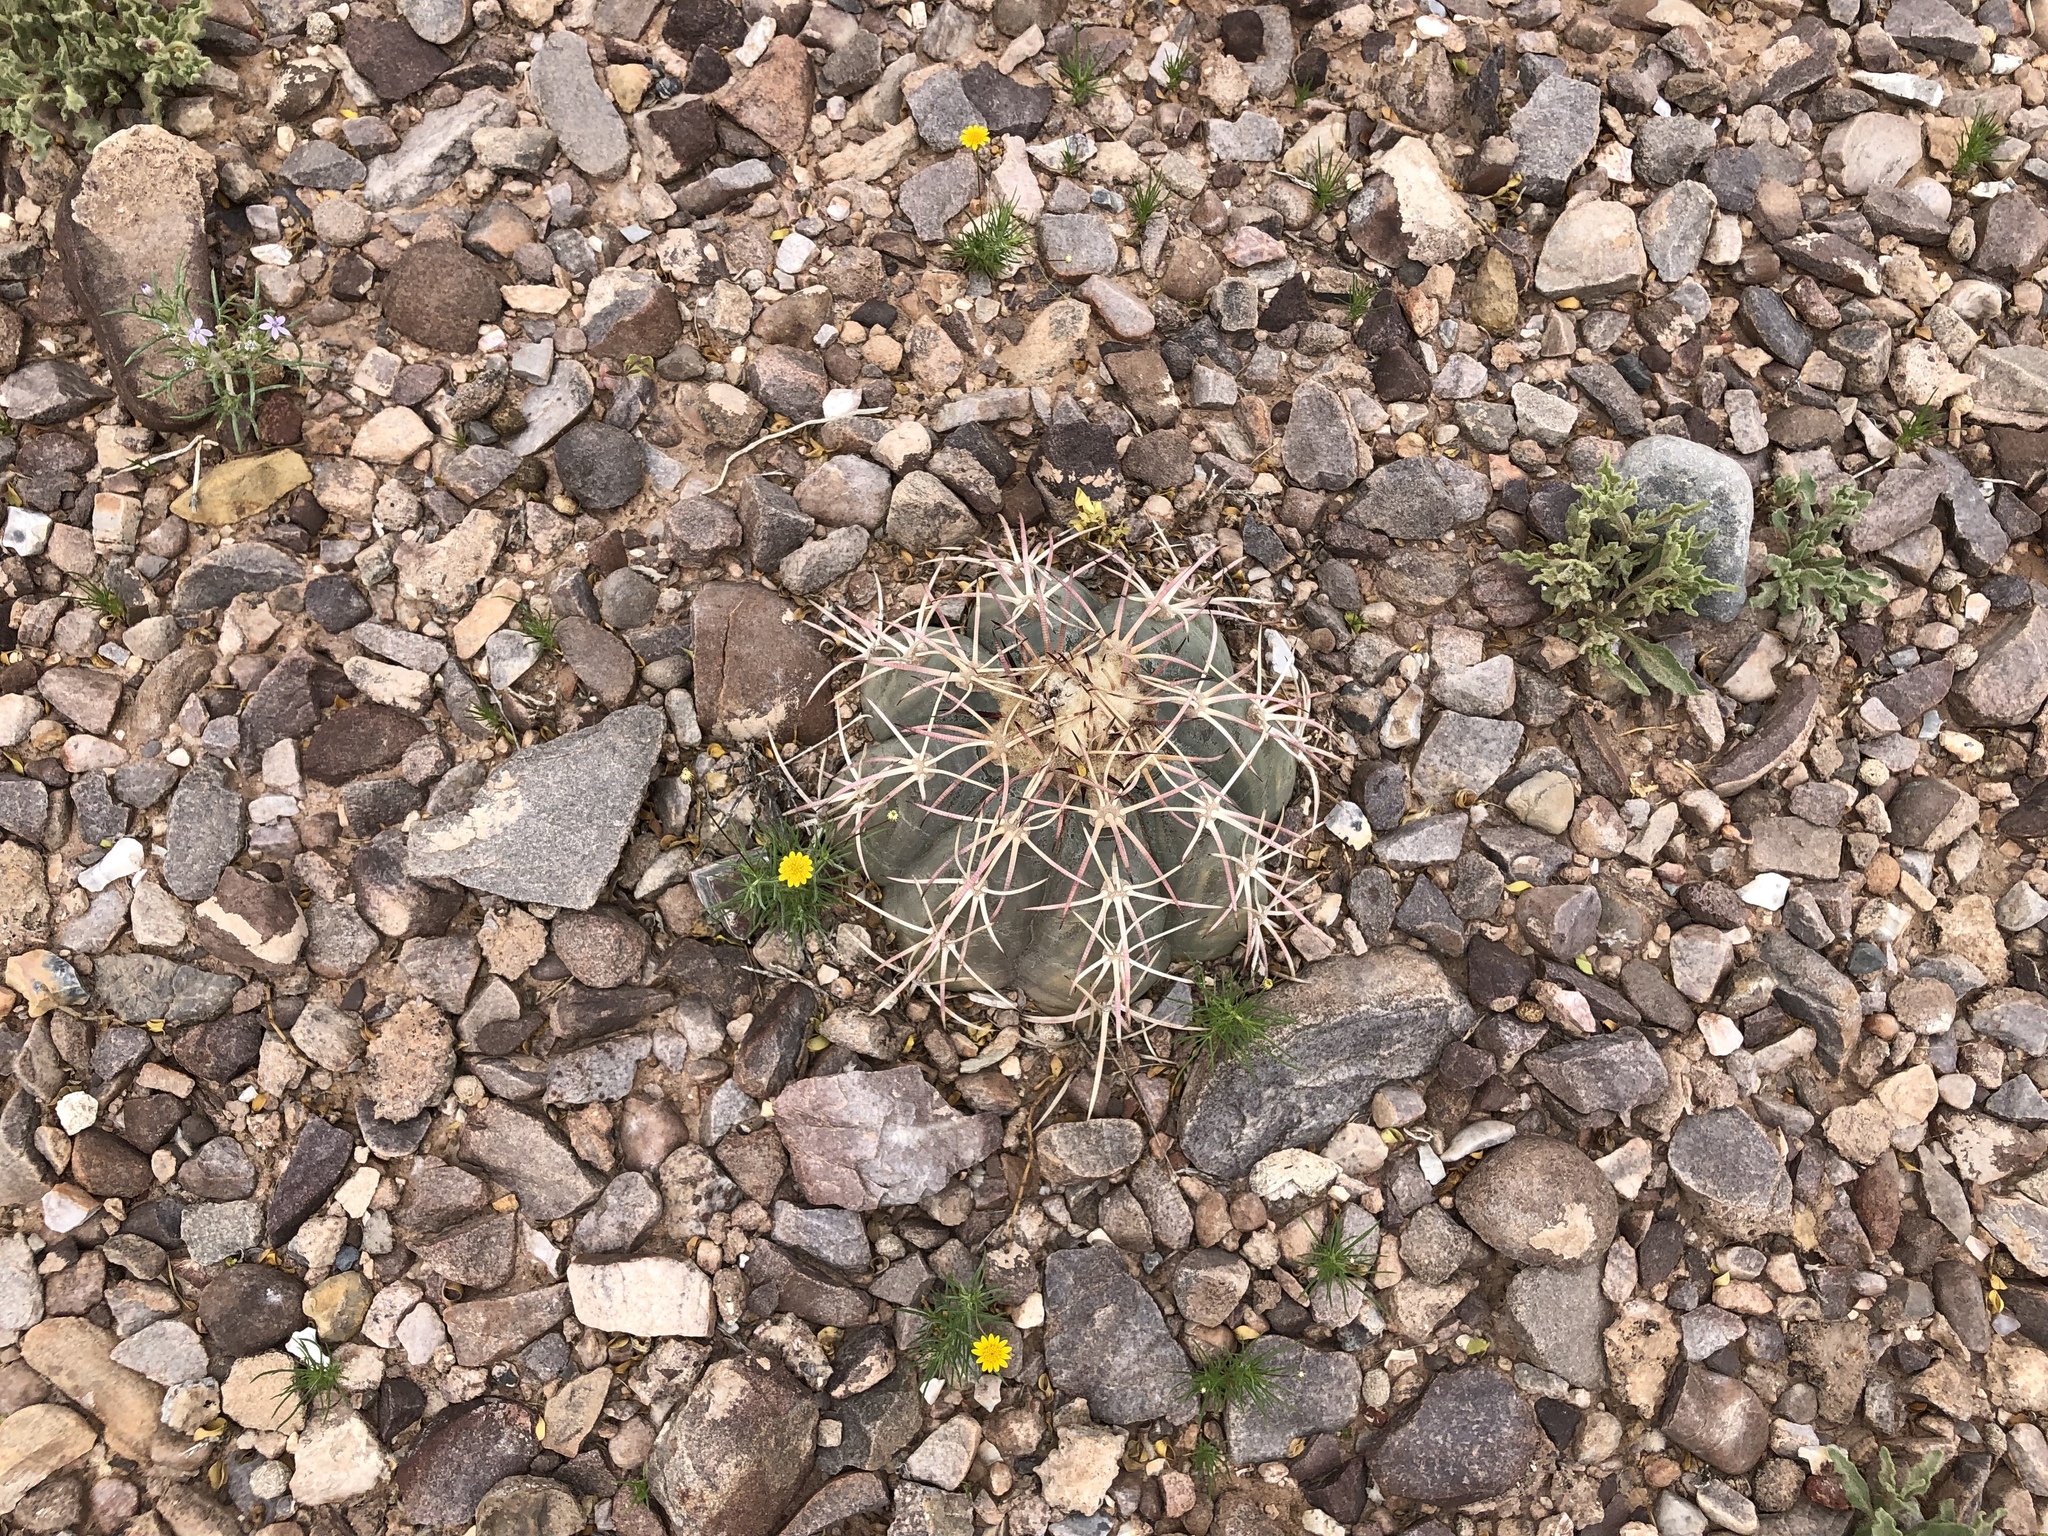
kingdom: Plantae
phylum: Tracheophyta
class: Magnoliopsida
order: Caryophyllales
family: Cactaceae
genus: Echinocactus
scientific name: Echinocactus horizonthalonius
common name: Devilshead
